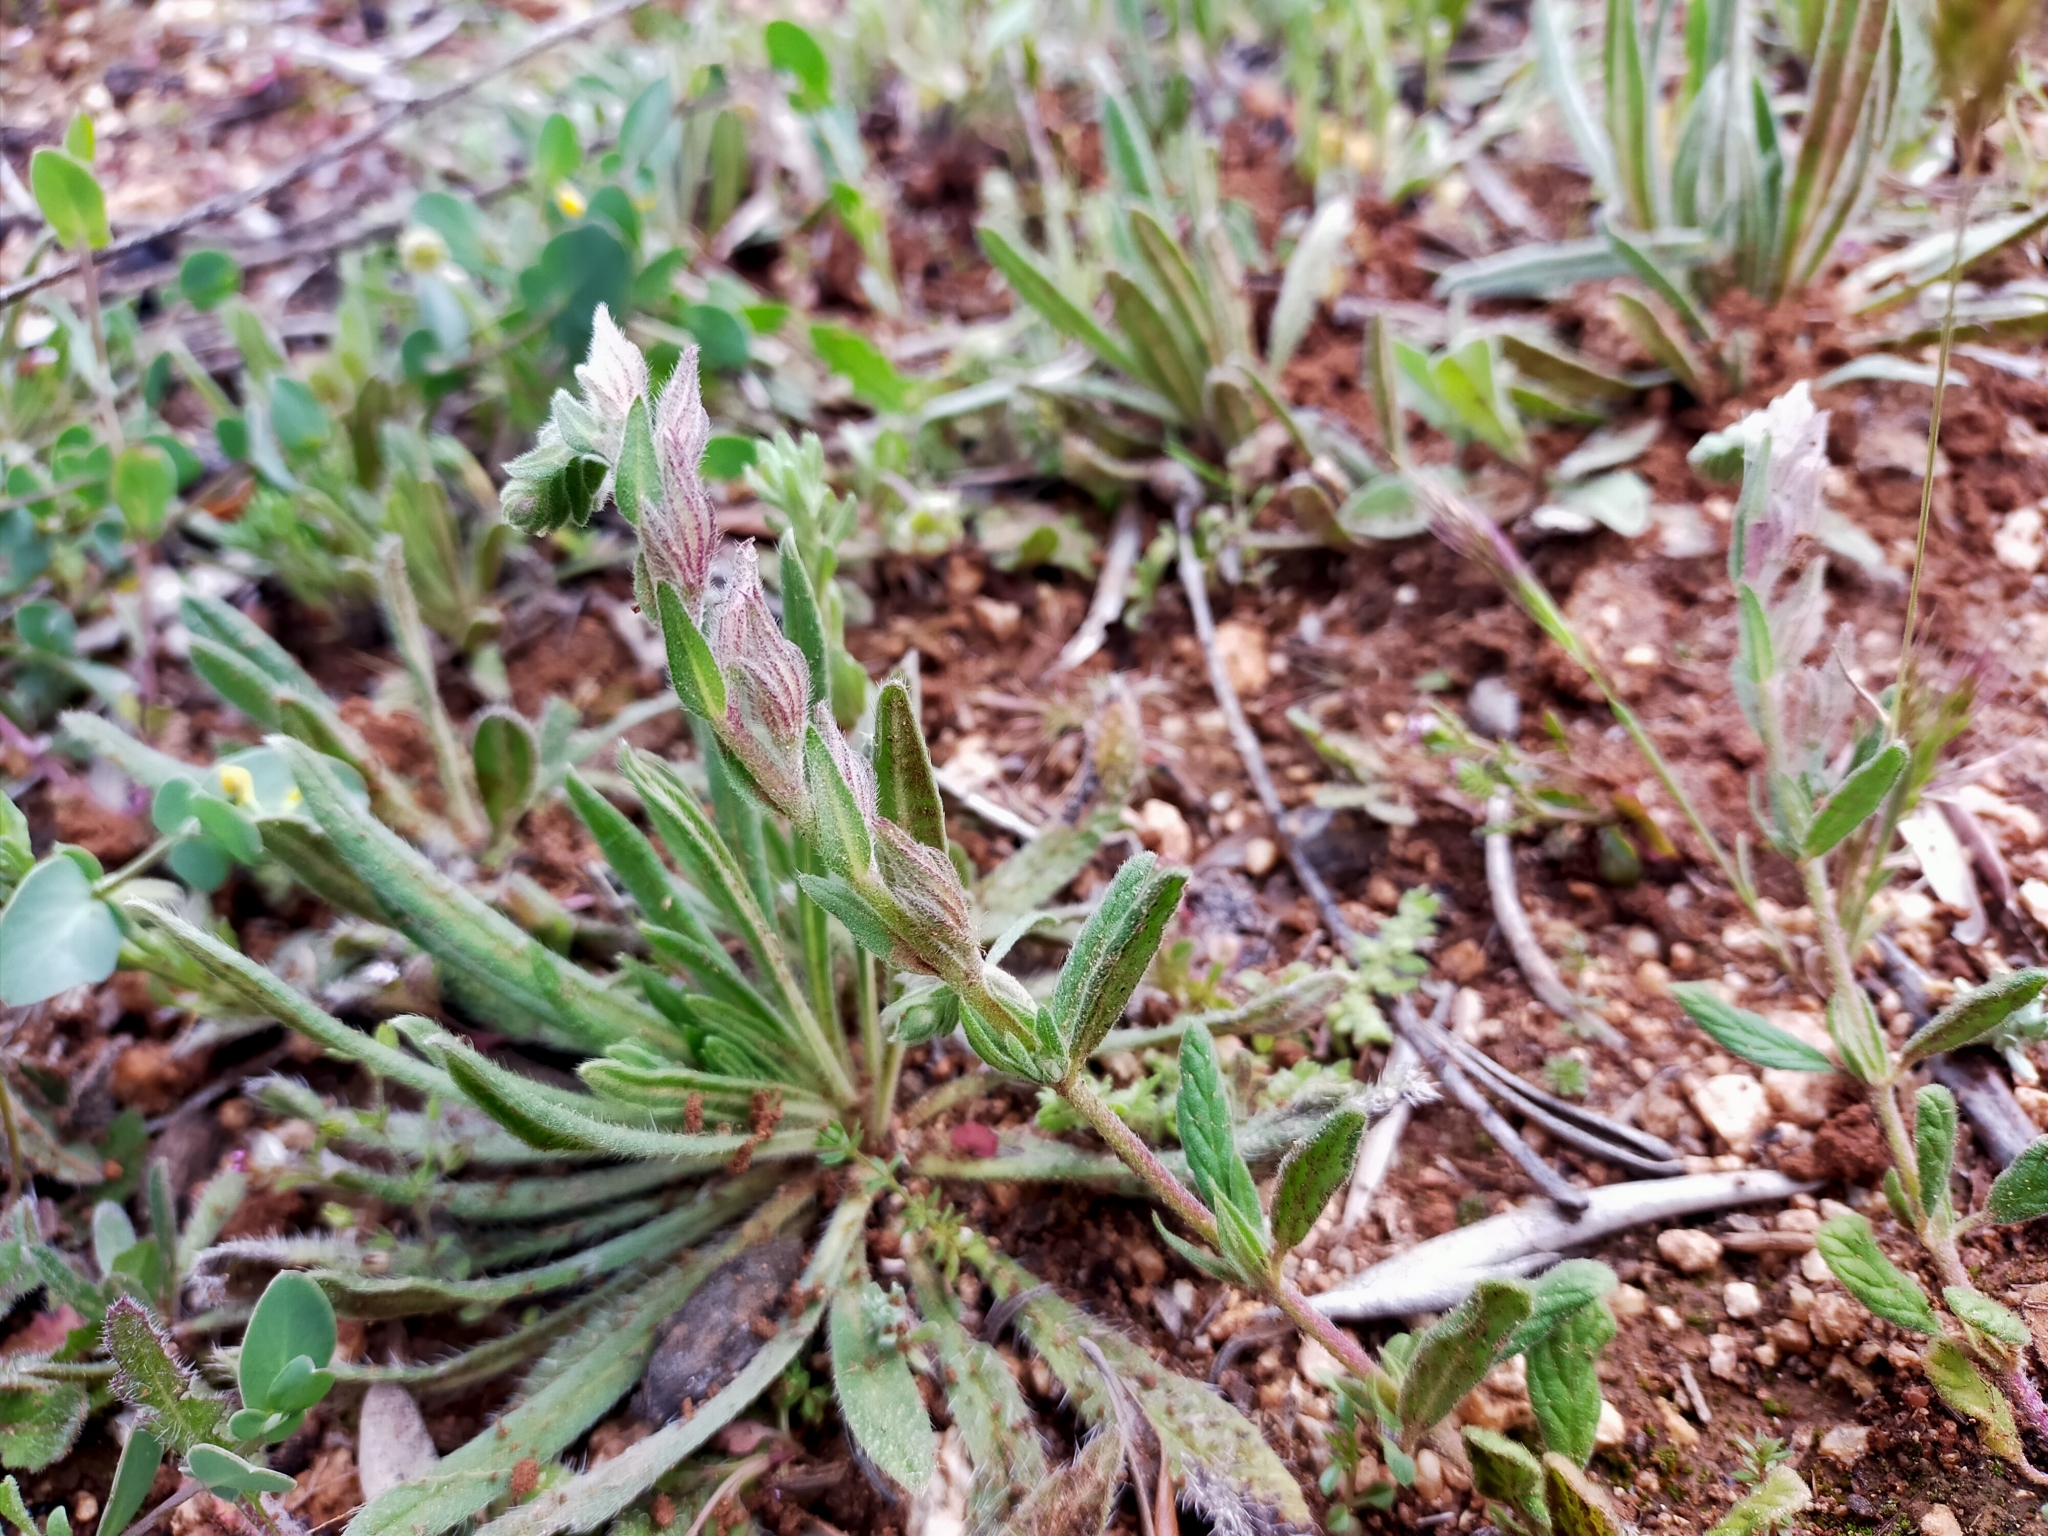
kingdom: Plantae
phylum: Tracheophyta
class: Magnoliopsida
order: Malvales
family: Cistaceae
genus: Helianthemum
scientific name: Helianthemum angustatum
